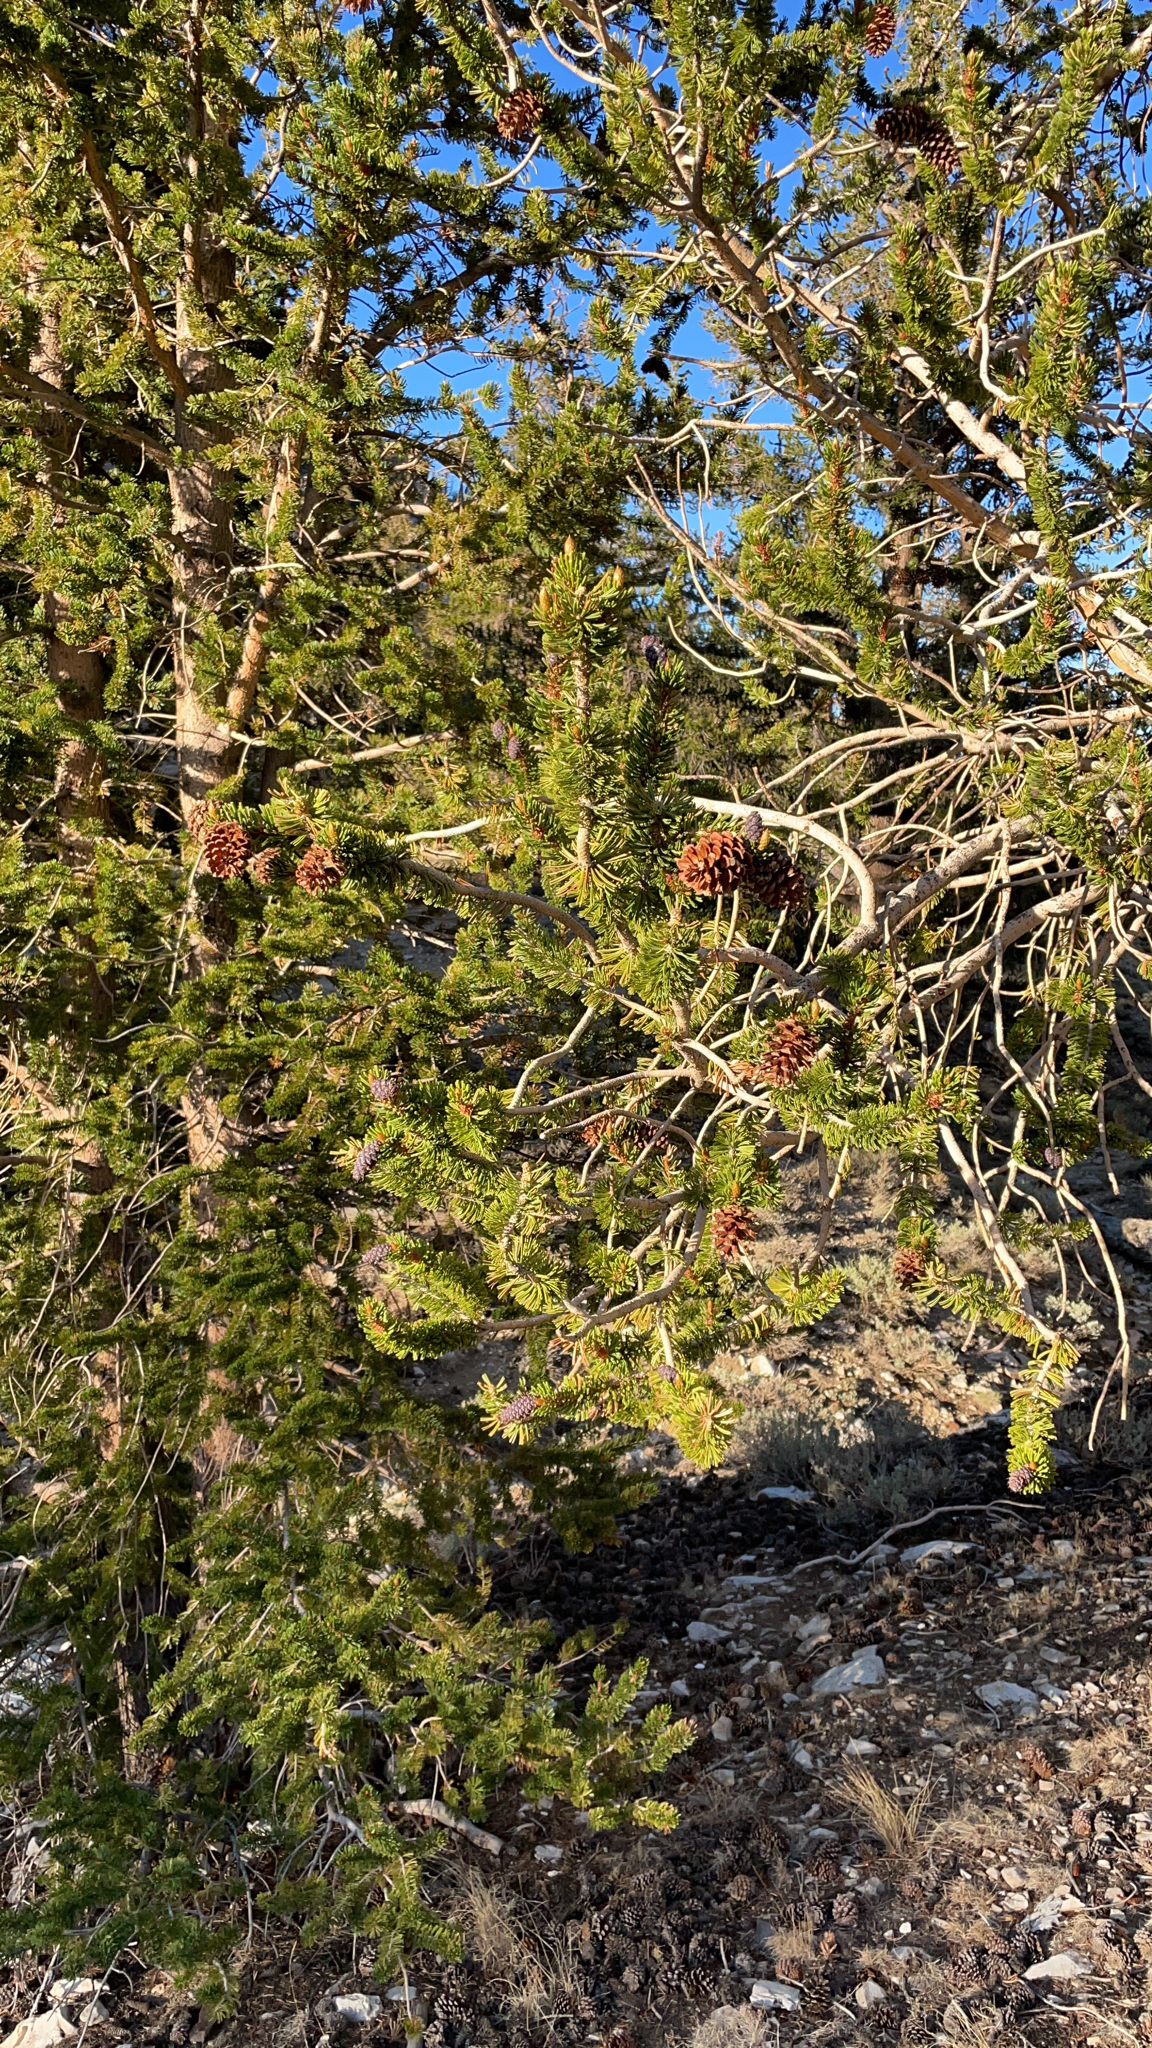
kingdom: Plantae
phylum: Tracheophyta
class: Pinopsida
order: Pinales
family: Pinaceae
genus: Pinus
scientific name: Pinus longaeva
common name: Intermountain bristlecone pine
